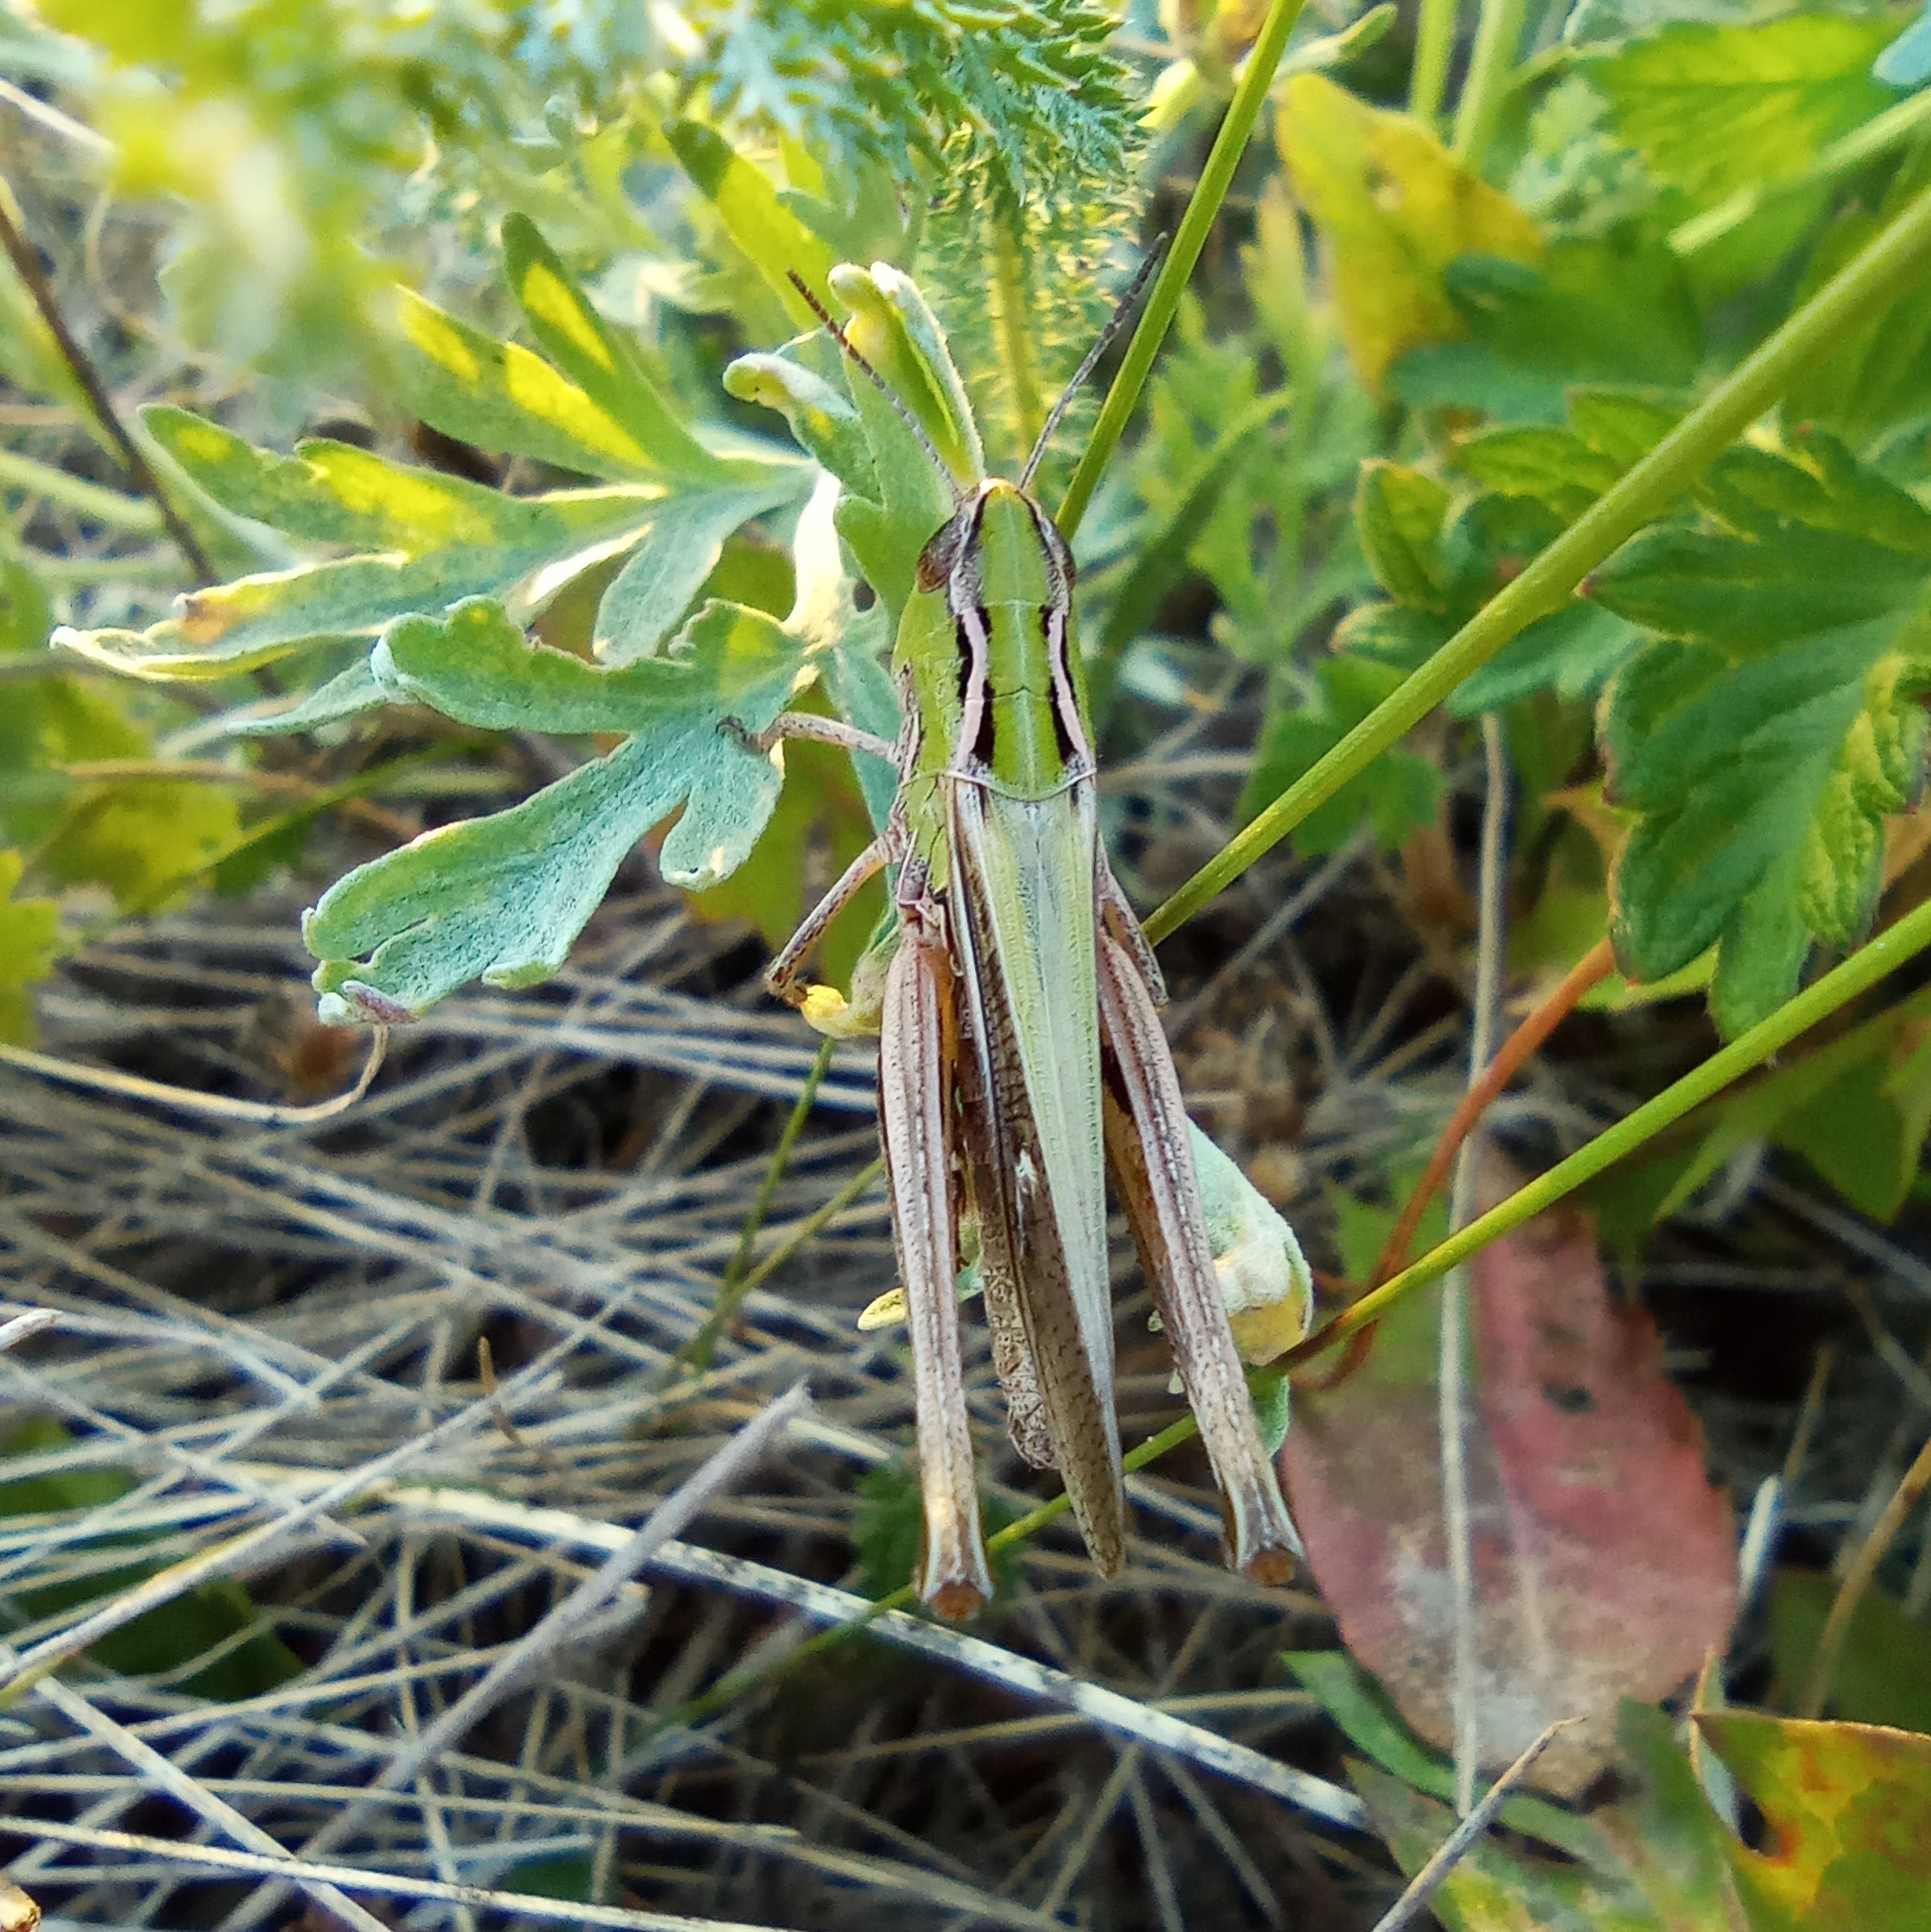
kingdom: Animalia
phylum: Arthropoda
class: Insecta
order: Orthoptera
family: Acrididae
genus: Stenobothrus
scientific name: Stenobothrus lineatus
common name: Stripe-winged grasshopper
